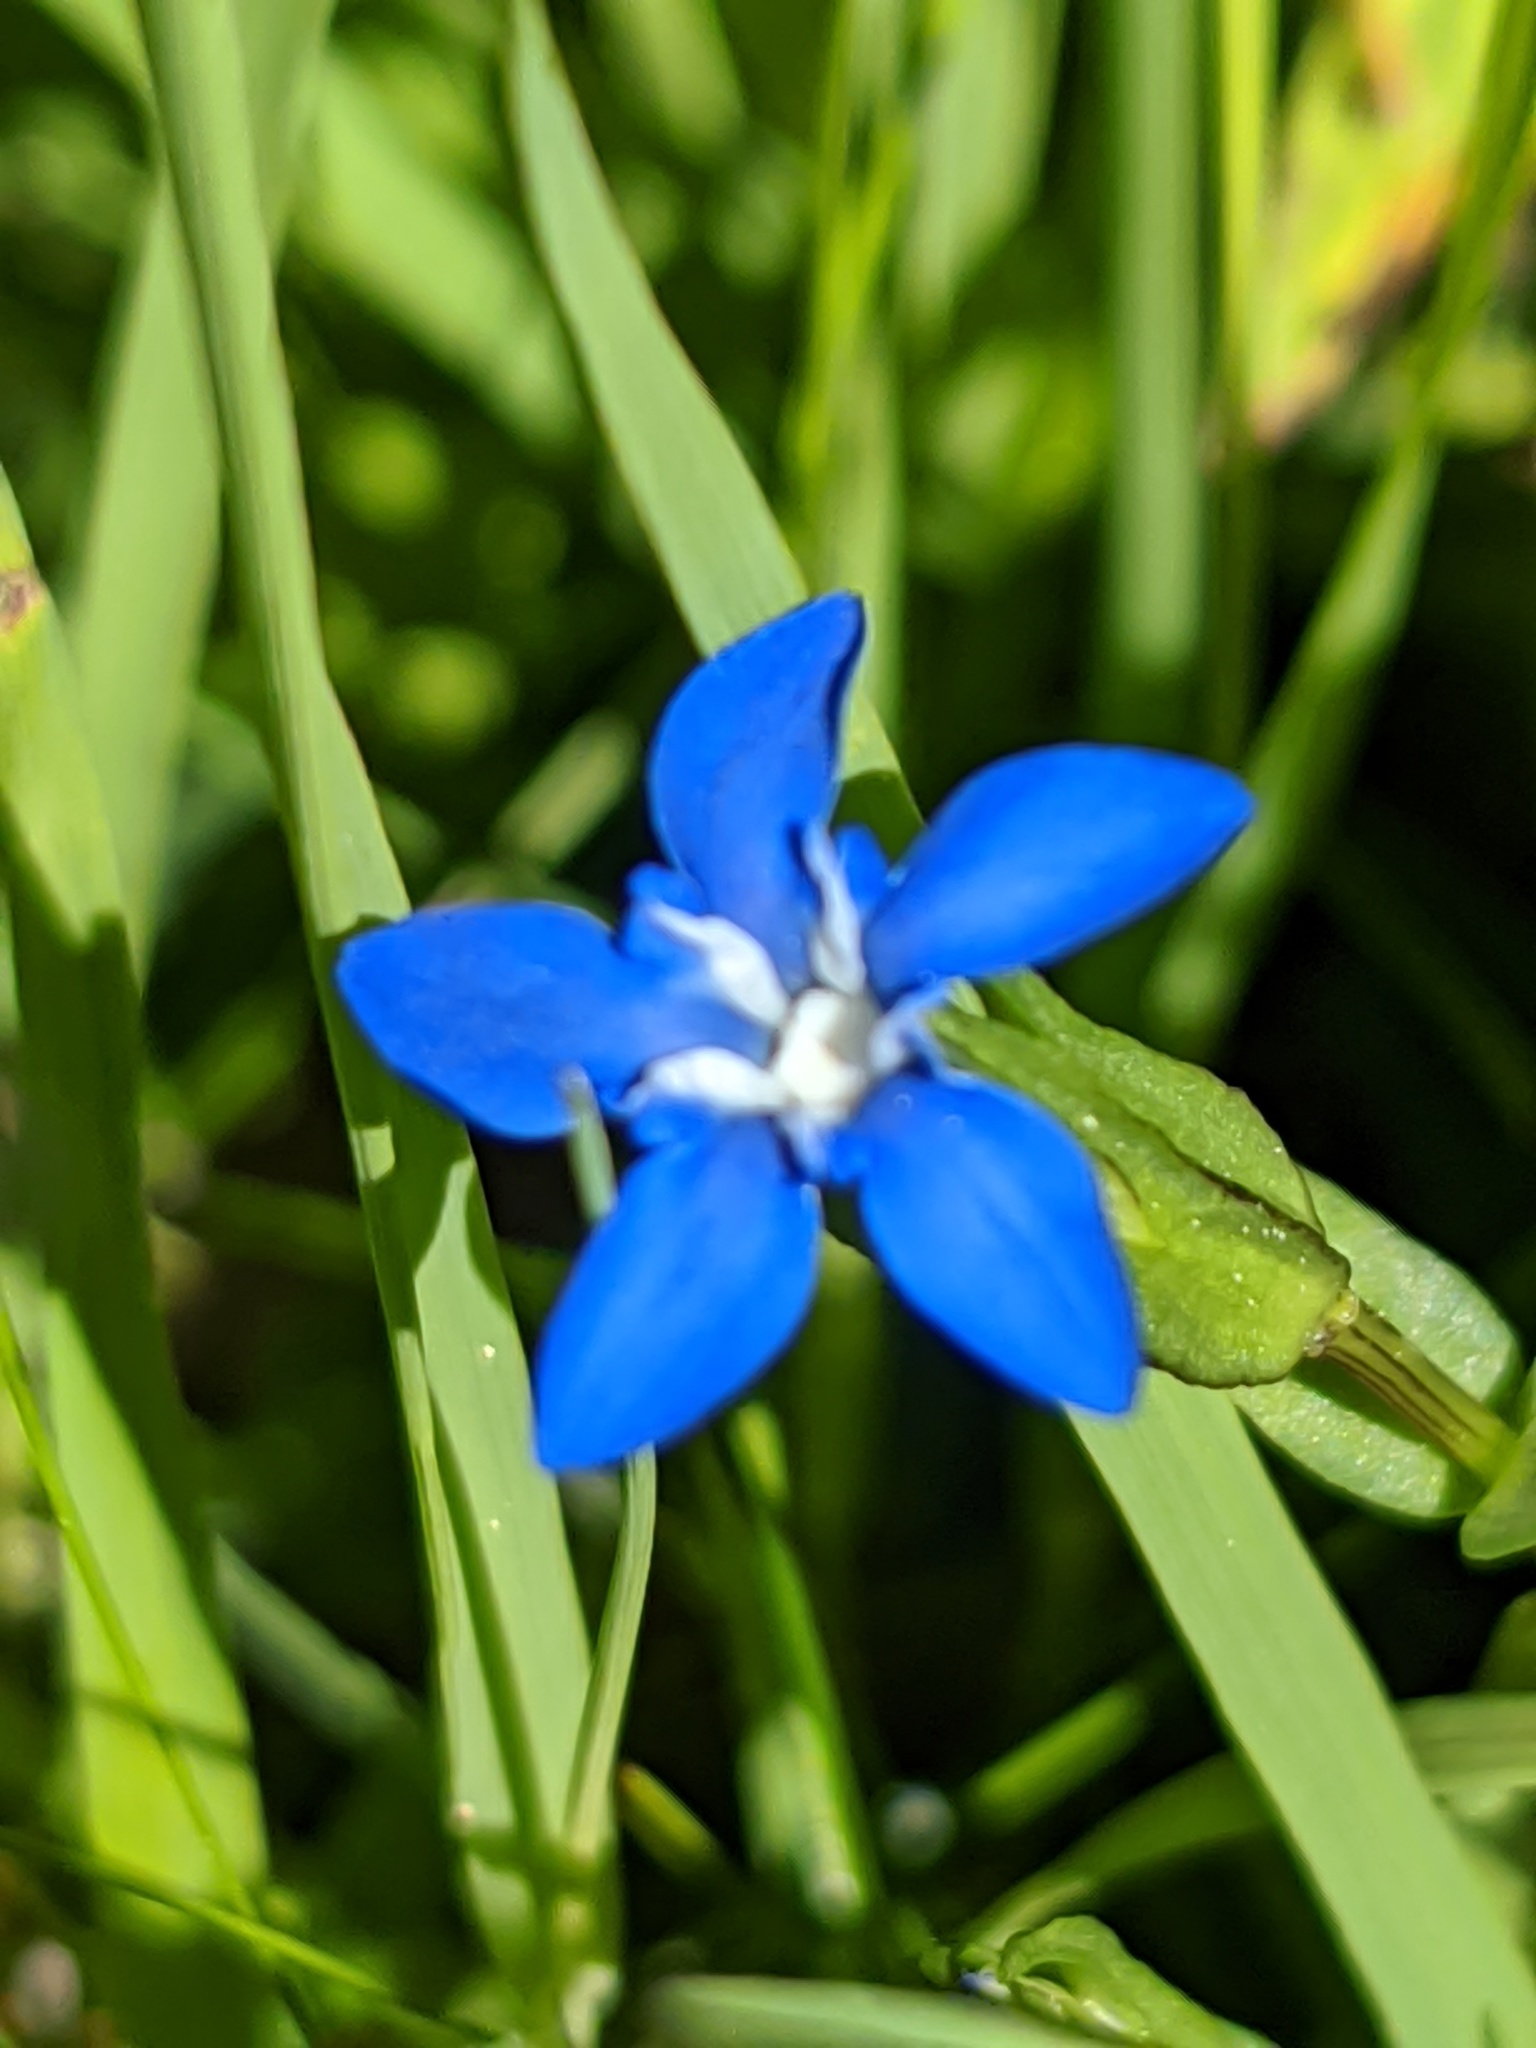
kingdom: Plantae
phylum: Tracheophyta
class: Magnoliopsida
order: Gentianales
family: Gentianaceae
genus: Gentiana
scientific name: Gentiana nivalis
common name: Alpine gentian
